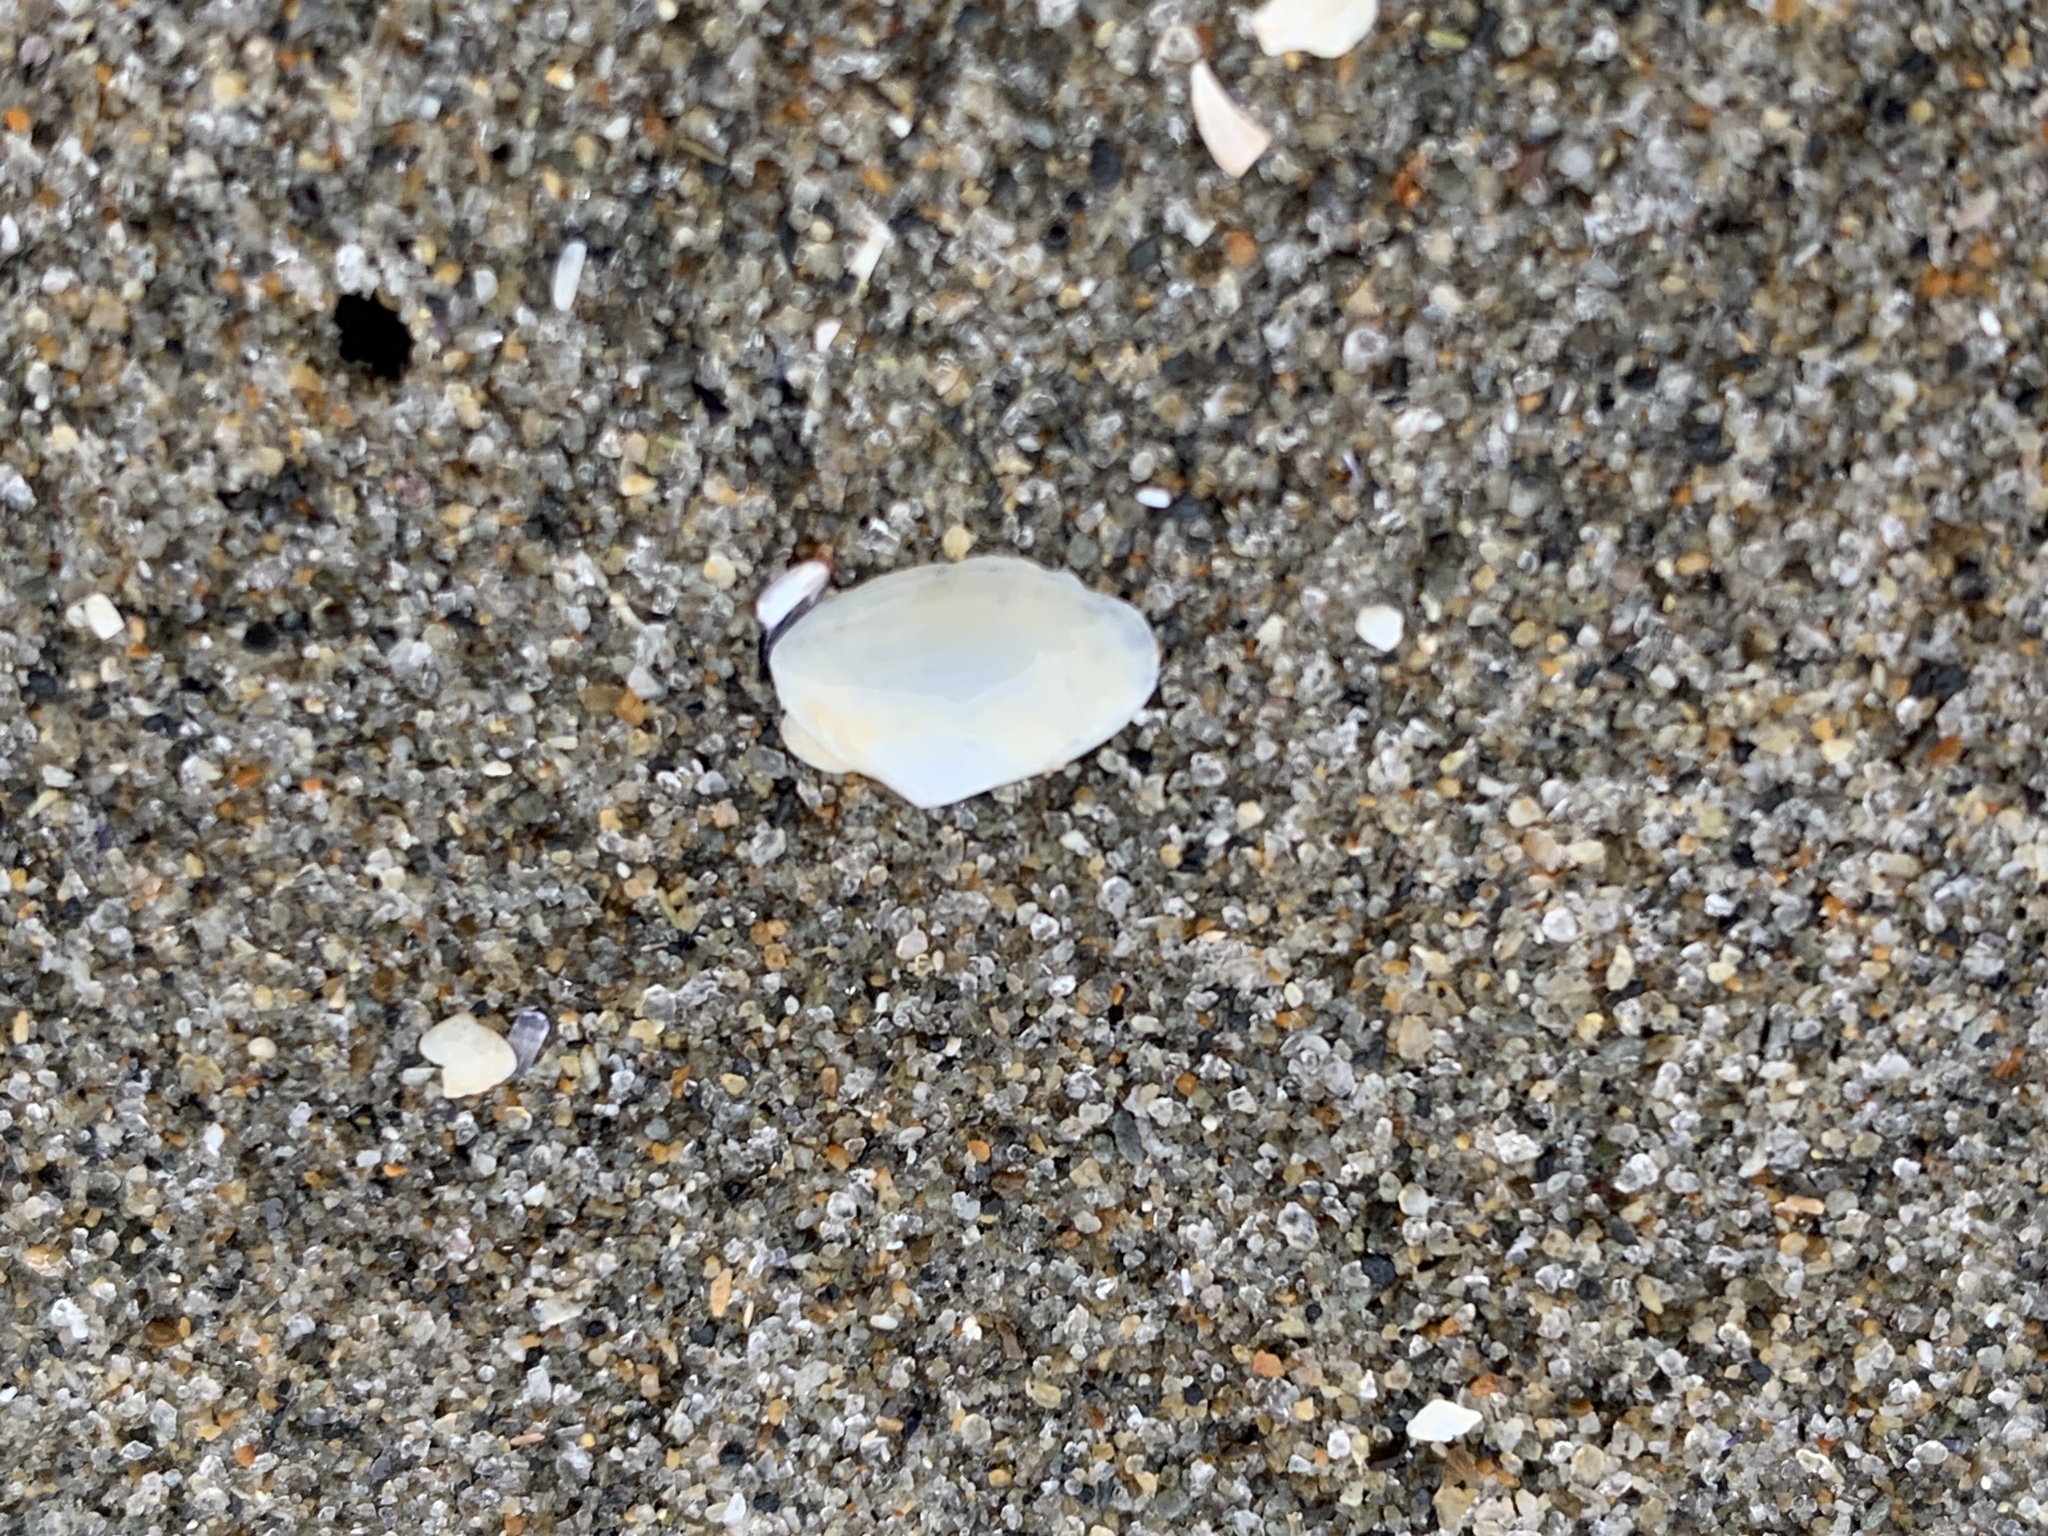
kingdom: Animalia
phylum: Mollusca
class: Bivalvia
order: Venerida
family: Mesodesmatidae
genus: Mesodesma
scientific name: Mesodesma arctatum
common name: Compressed clam
